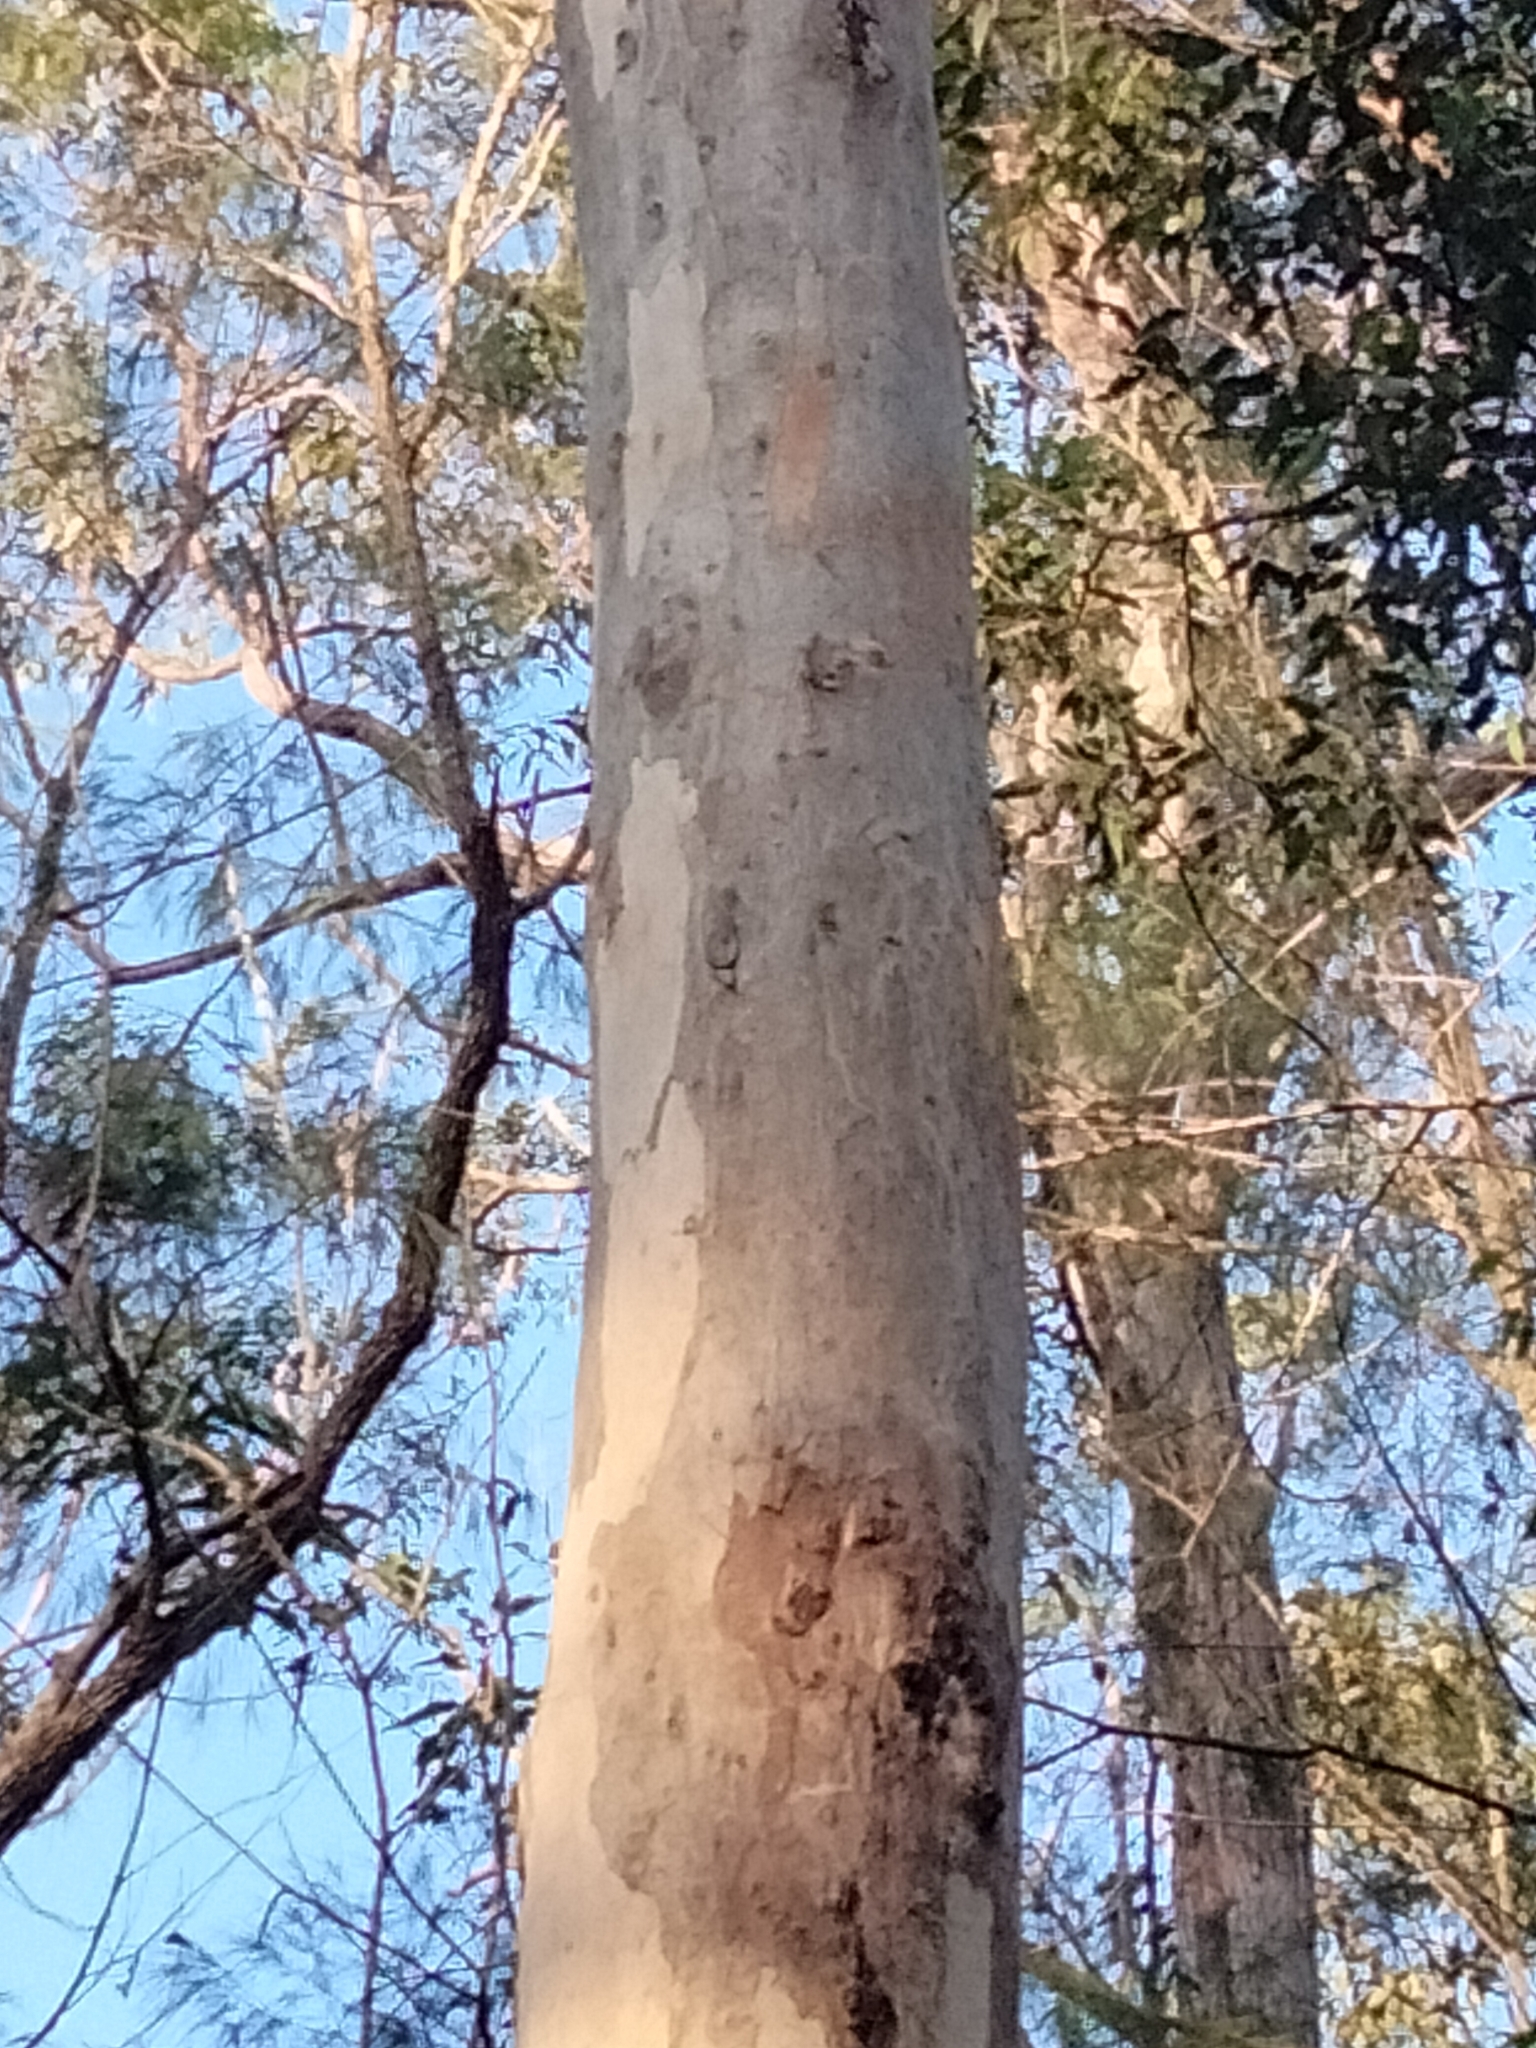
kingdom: Animalia
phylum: Chordata
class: Mammalia
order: Diprotodontia
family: Phascolarctidae
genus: Phascolarctos
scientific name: Phascolarctos cinereus
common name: Koala
